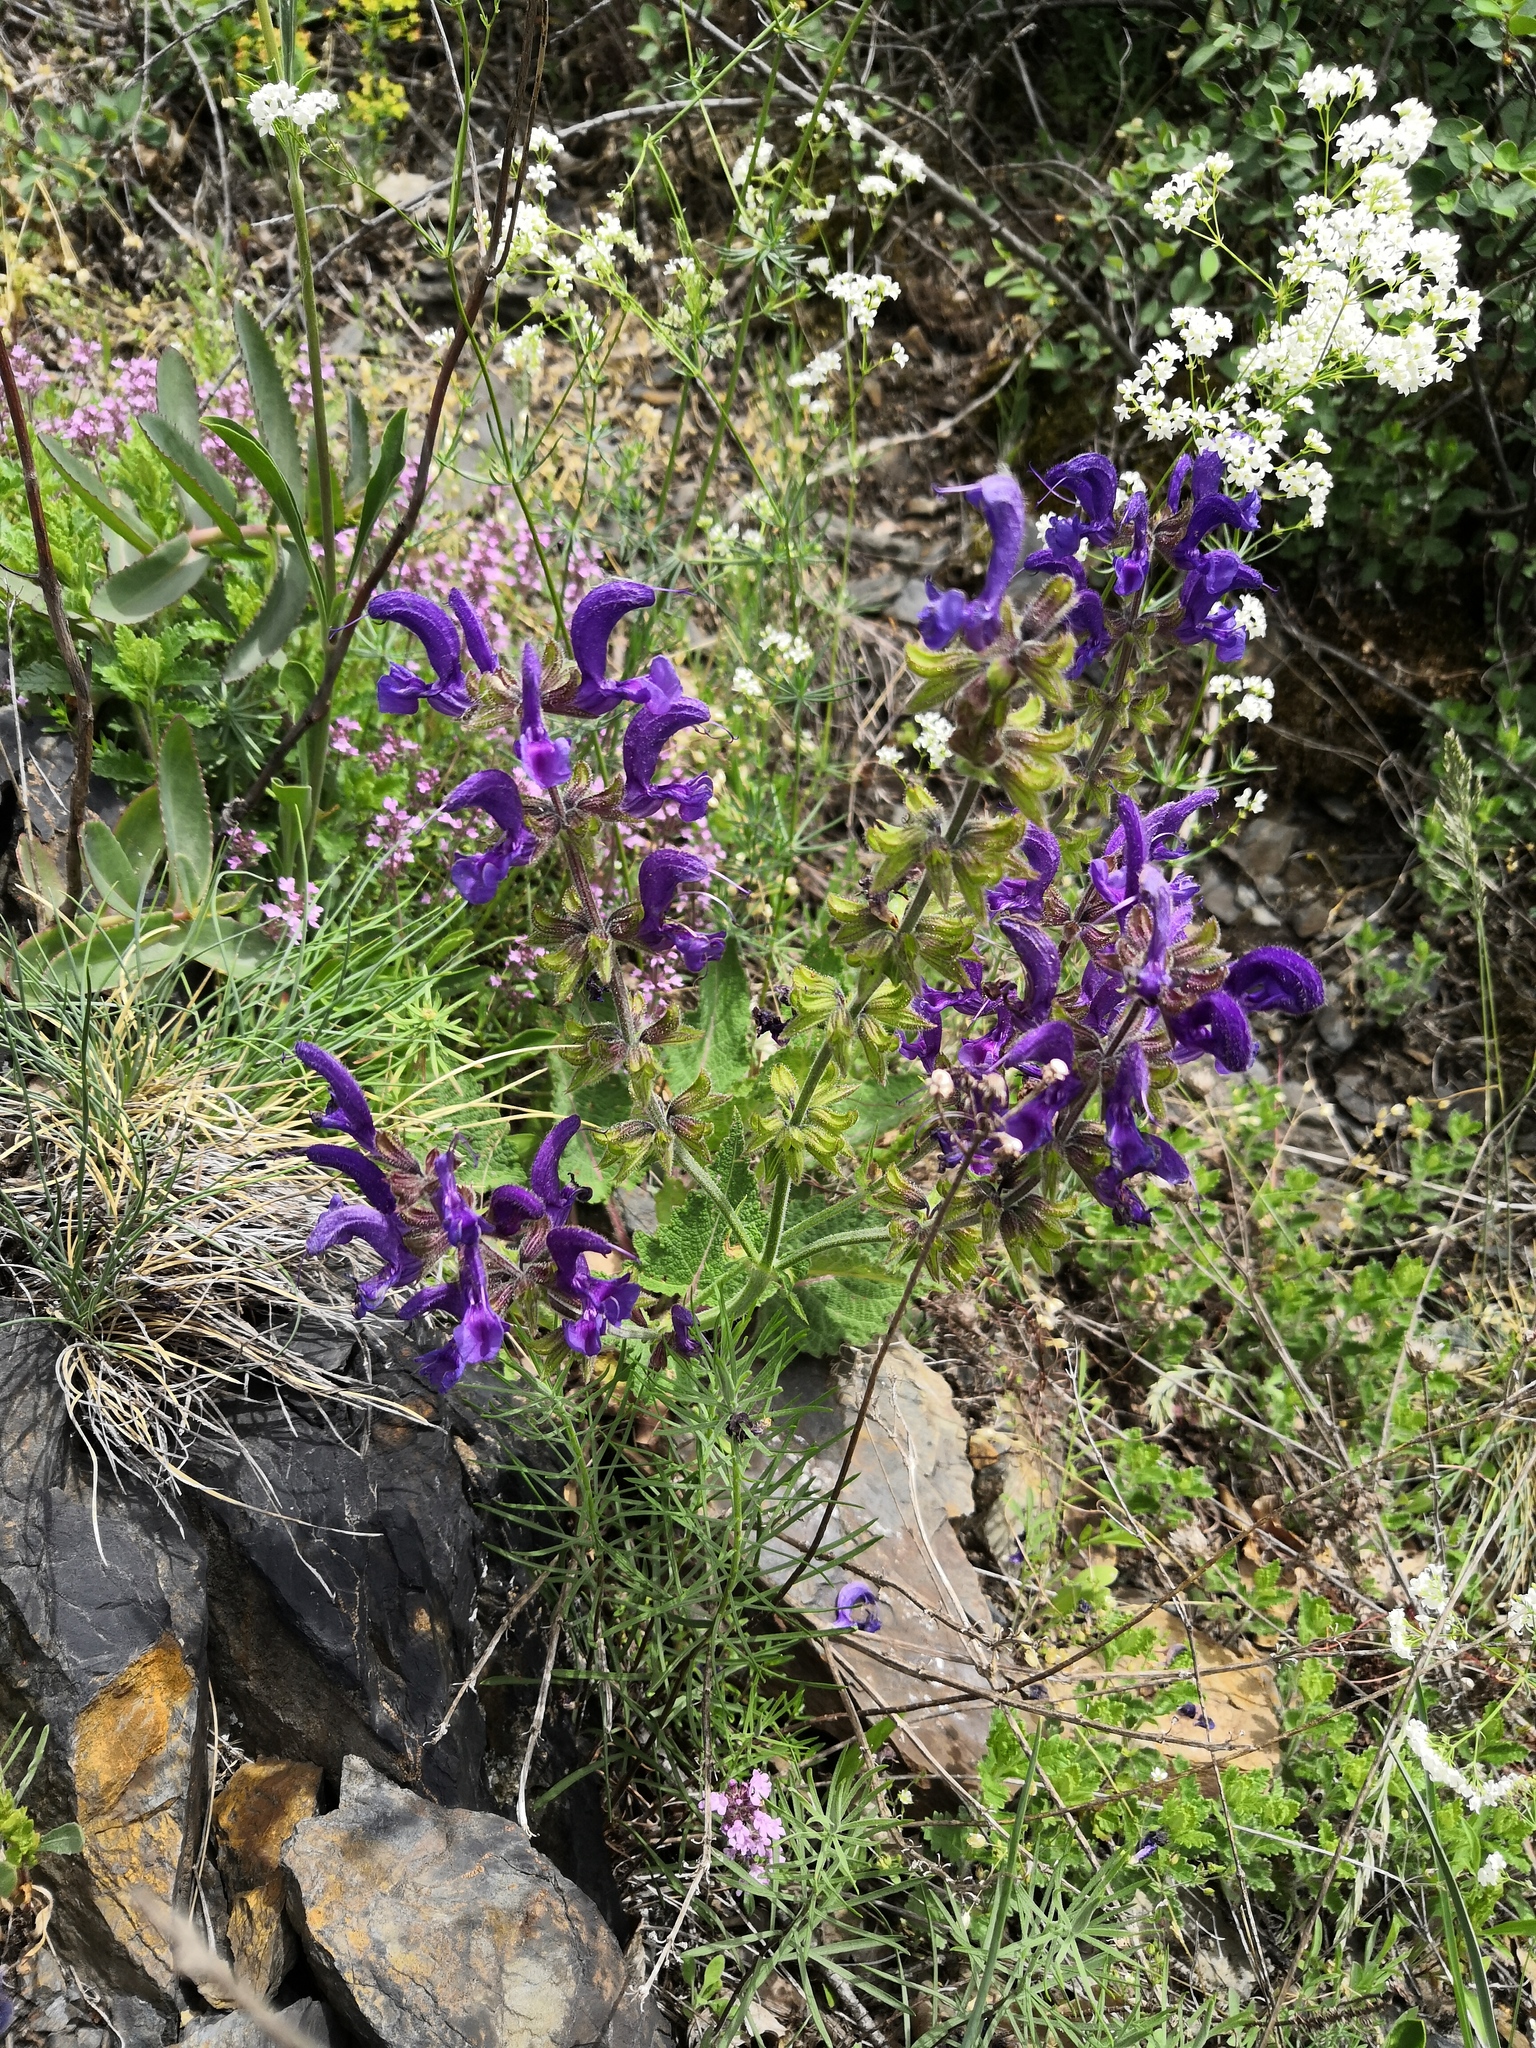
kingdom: Plantae
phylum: Tracheophyta
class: Magnoliopsida
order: Lamiales
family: Lamiaceae
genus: Salvia
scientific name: Salvia pratensis
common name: Meadow sage
